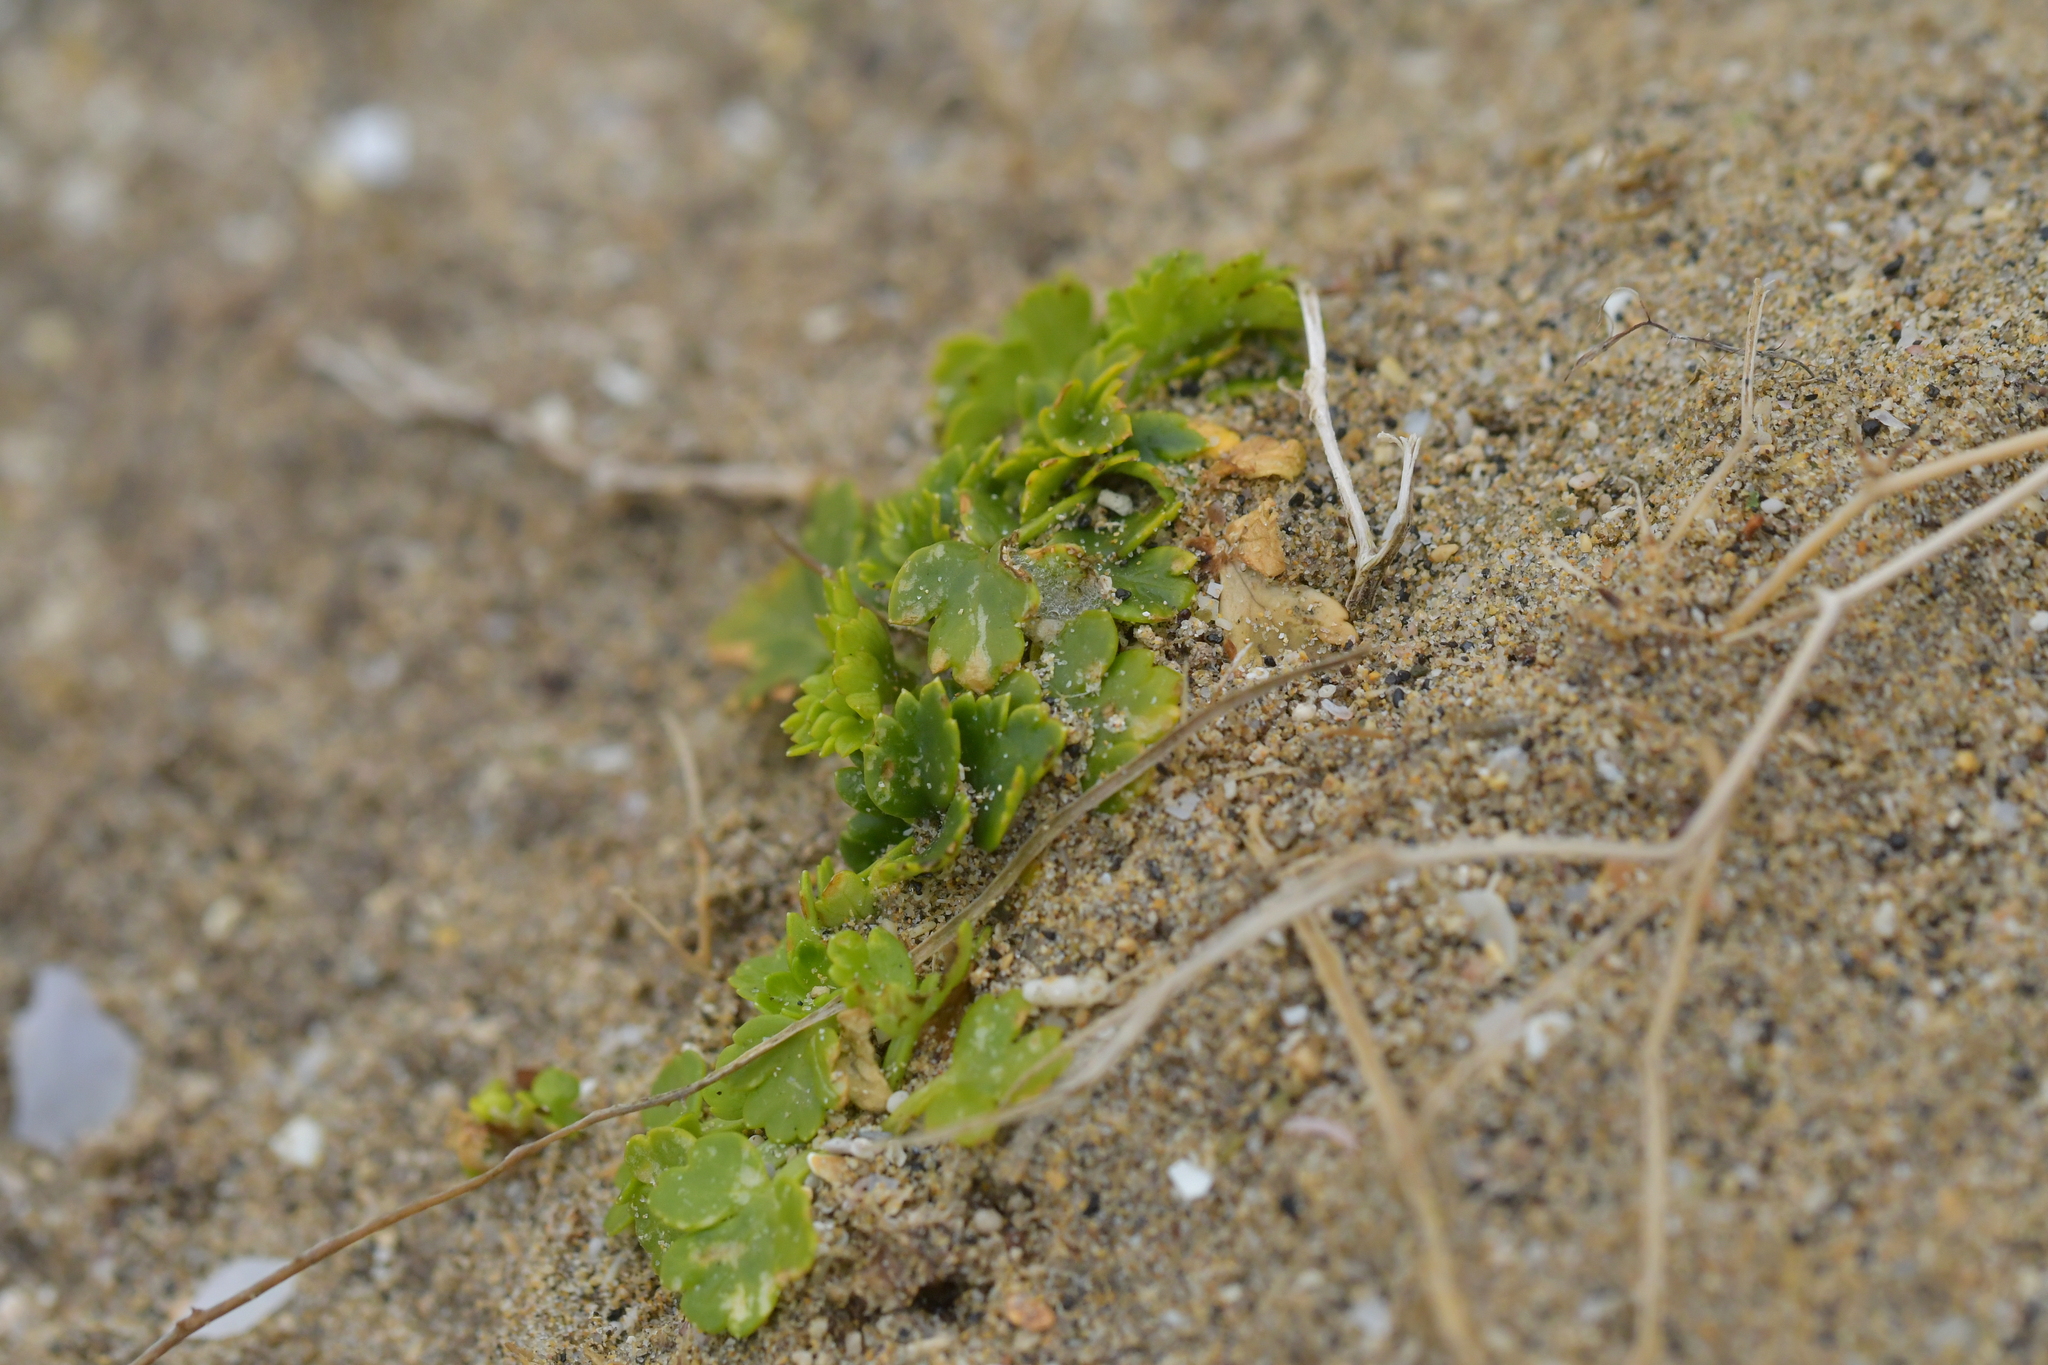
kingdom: Plantae
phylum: Tracheophyta
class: Magnoliopsida
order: Apiales
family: Apiaceae
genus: Apium
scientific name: Apium prostratum
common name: Prostrate marshwort
